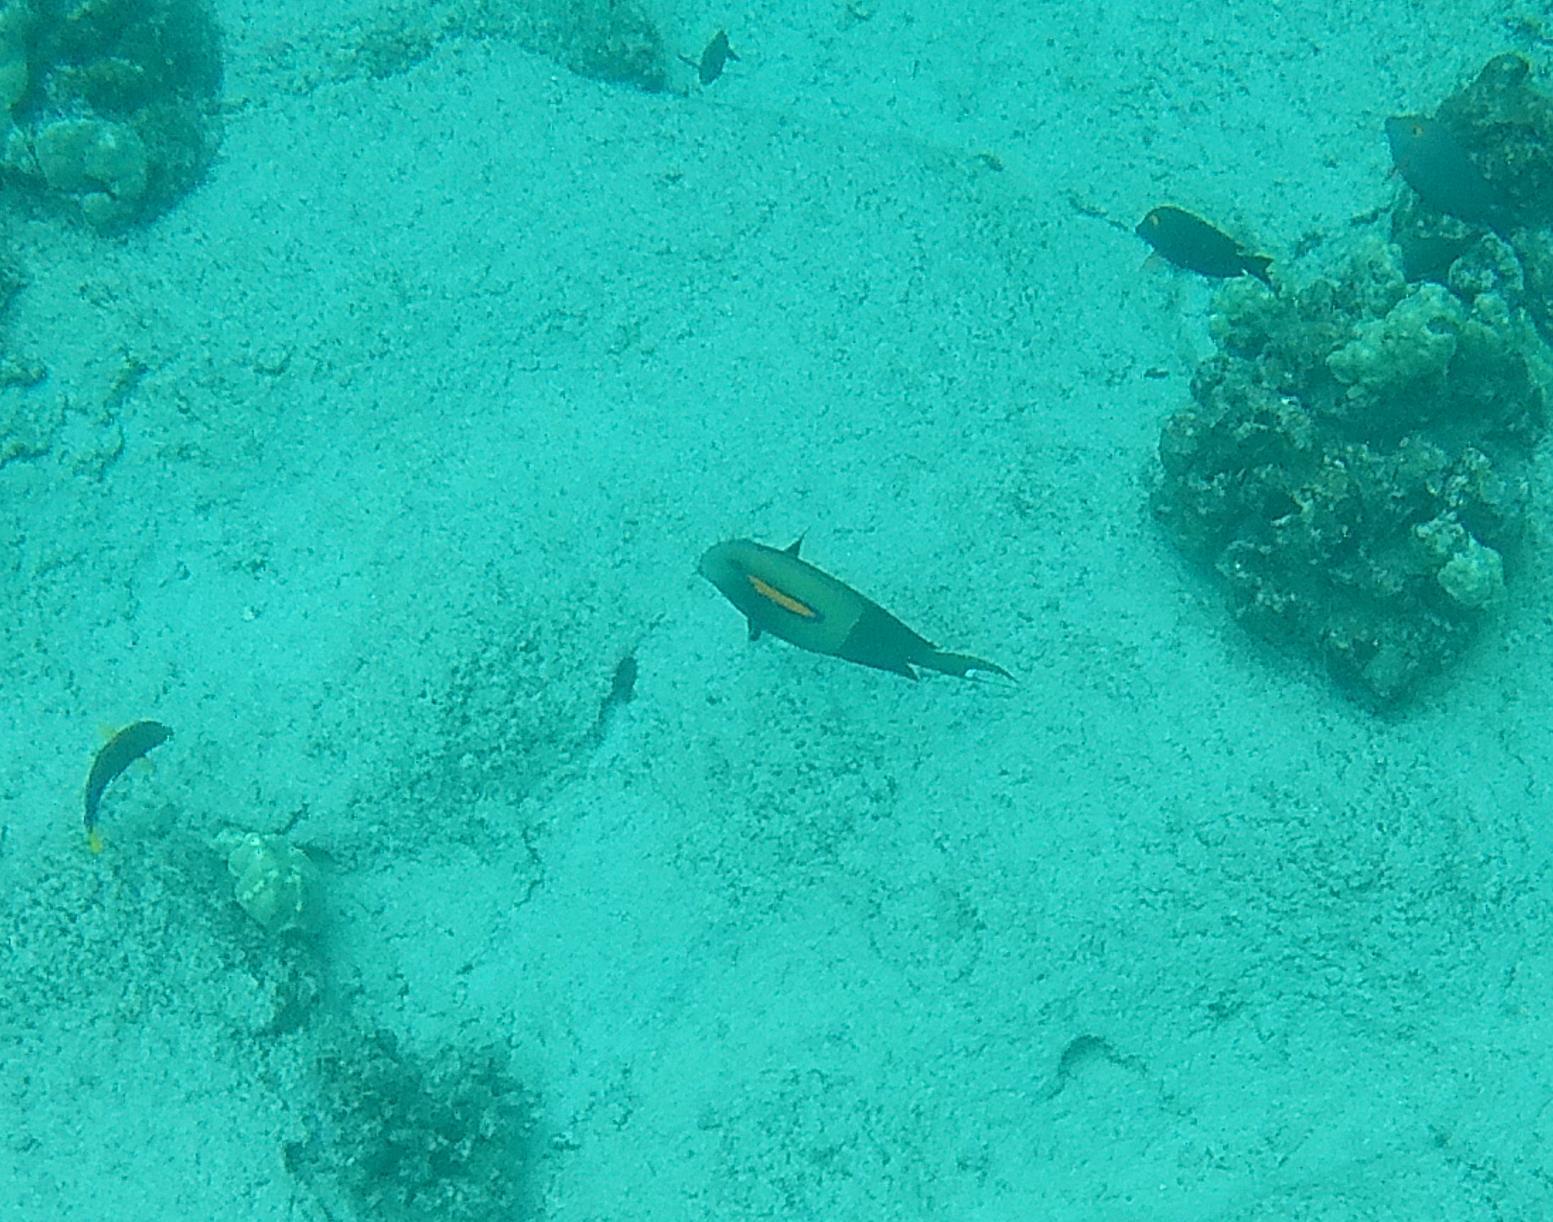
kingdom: Animalia
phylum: Chordata
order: Perciformes
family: Acanthuridae
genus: Acanthurus
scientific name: Acanthurus olivaceus
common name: Gendarme fish
